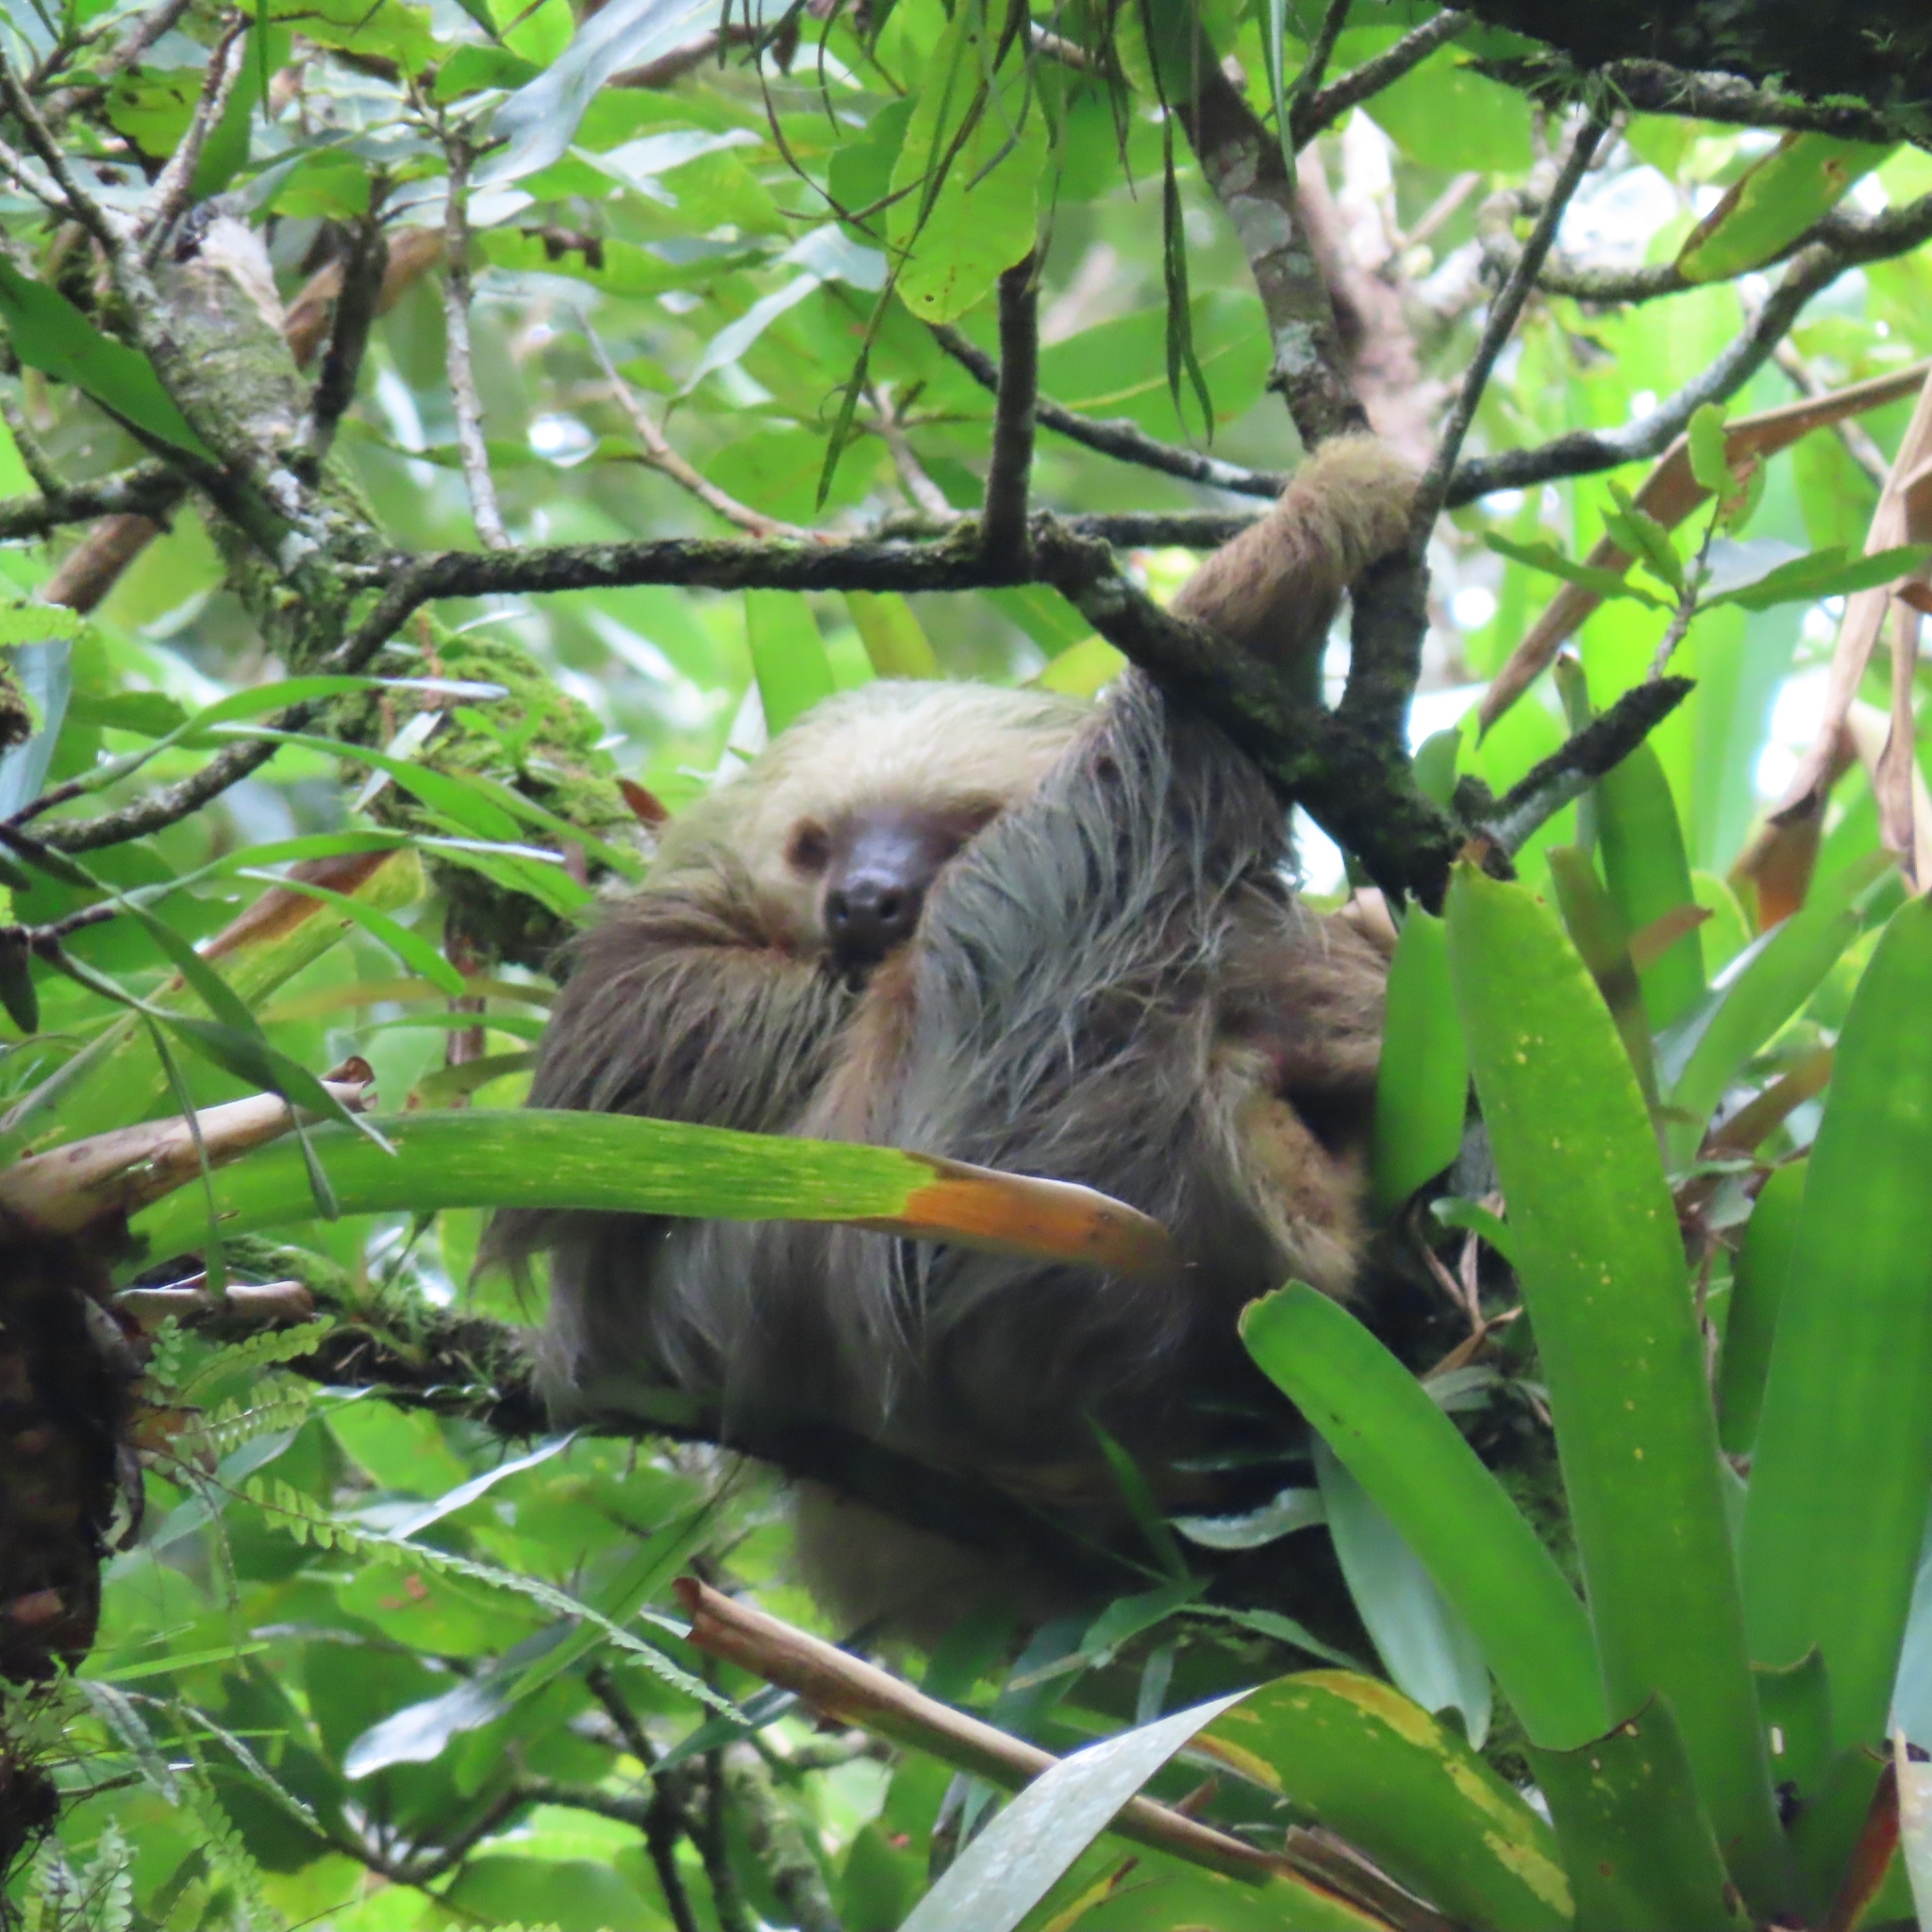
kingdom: Animalia
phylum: Chordata
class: Mammalia
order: Pilosa
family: Megalonychidae
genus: Choloepus
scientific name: Choloepus hoffmanni
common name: Hoffmann's two-toed sloth
